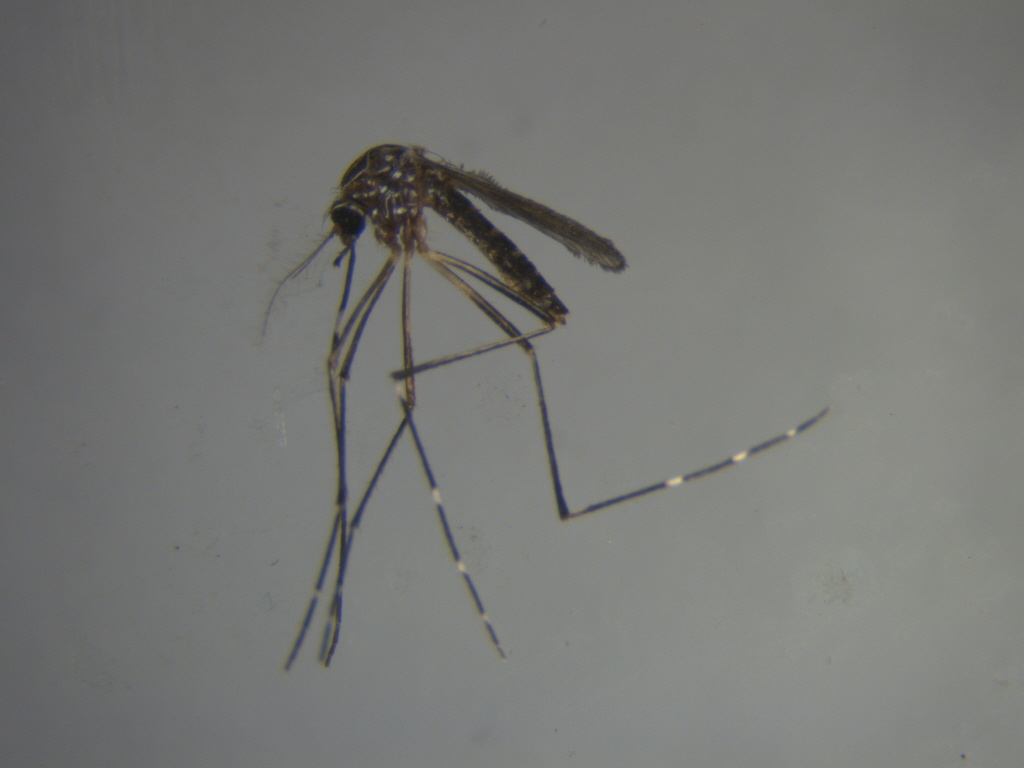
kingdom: Animalia
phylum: Arthropoda
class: Insecta
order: Diptera
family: Culicidae
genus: Aedes
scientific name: Aedes notoscriptus
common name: Australian backyard mosquito
